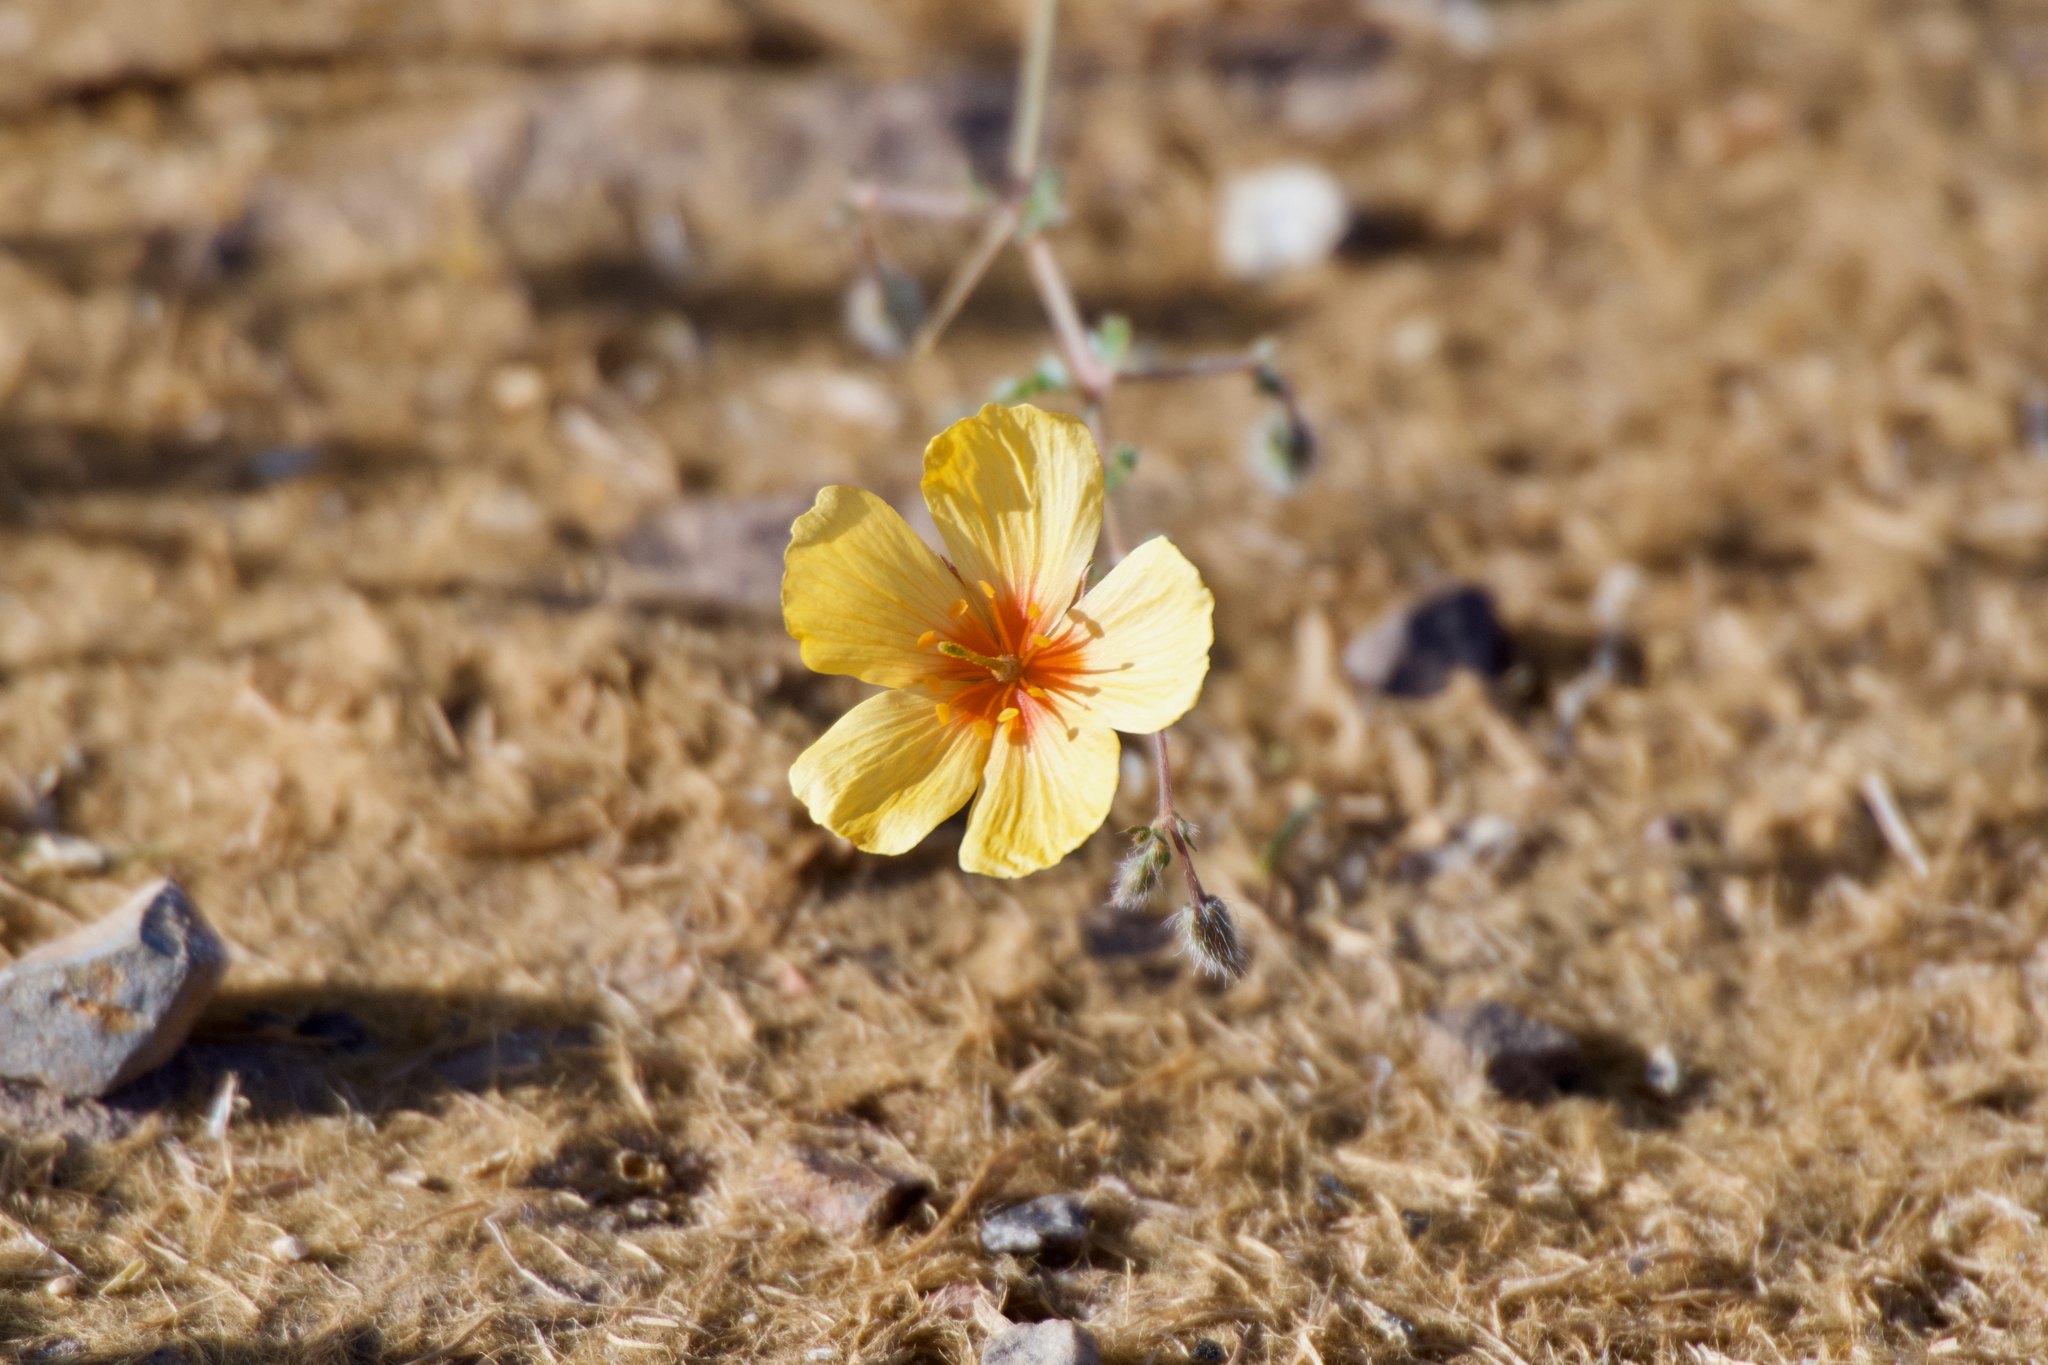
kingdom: Plantae
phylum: Tracheophyta
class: Magnoliopsida
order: Zygophyllales
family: Zygophyllaceae
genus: Kallstroemia
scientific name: Kallstroemia grandiflora
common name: Arizona-poppy
